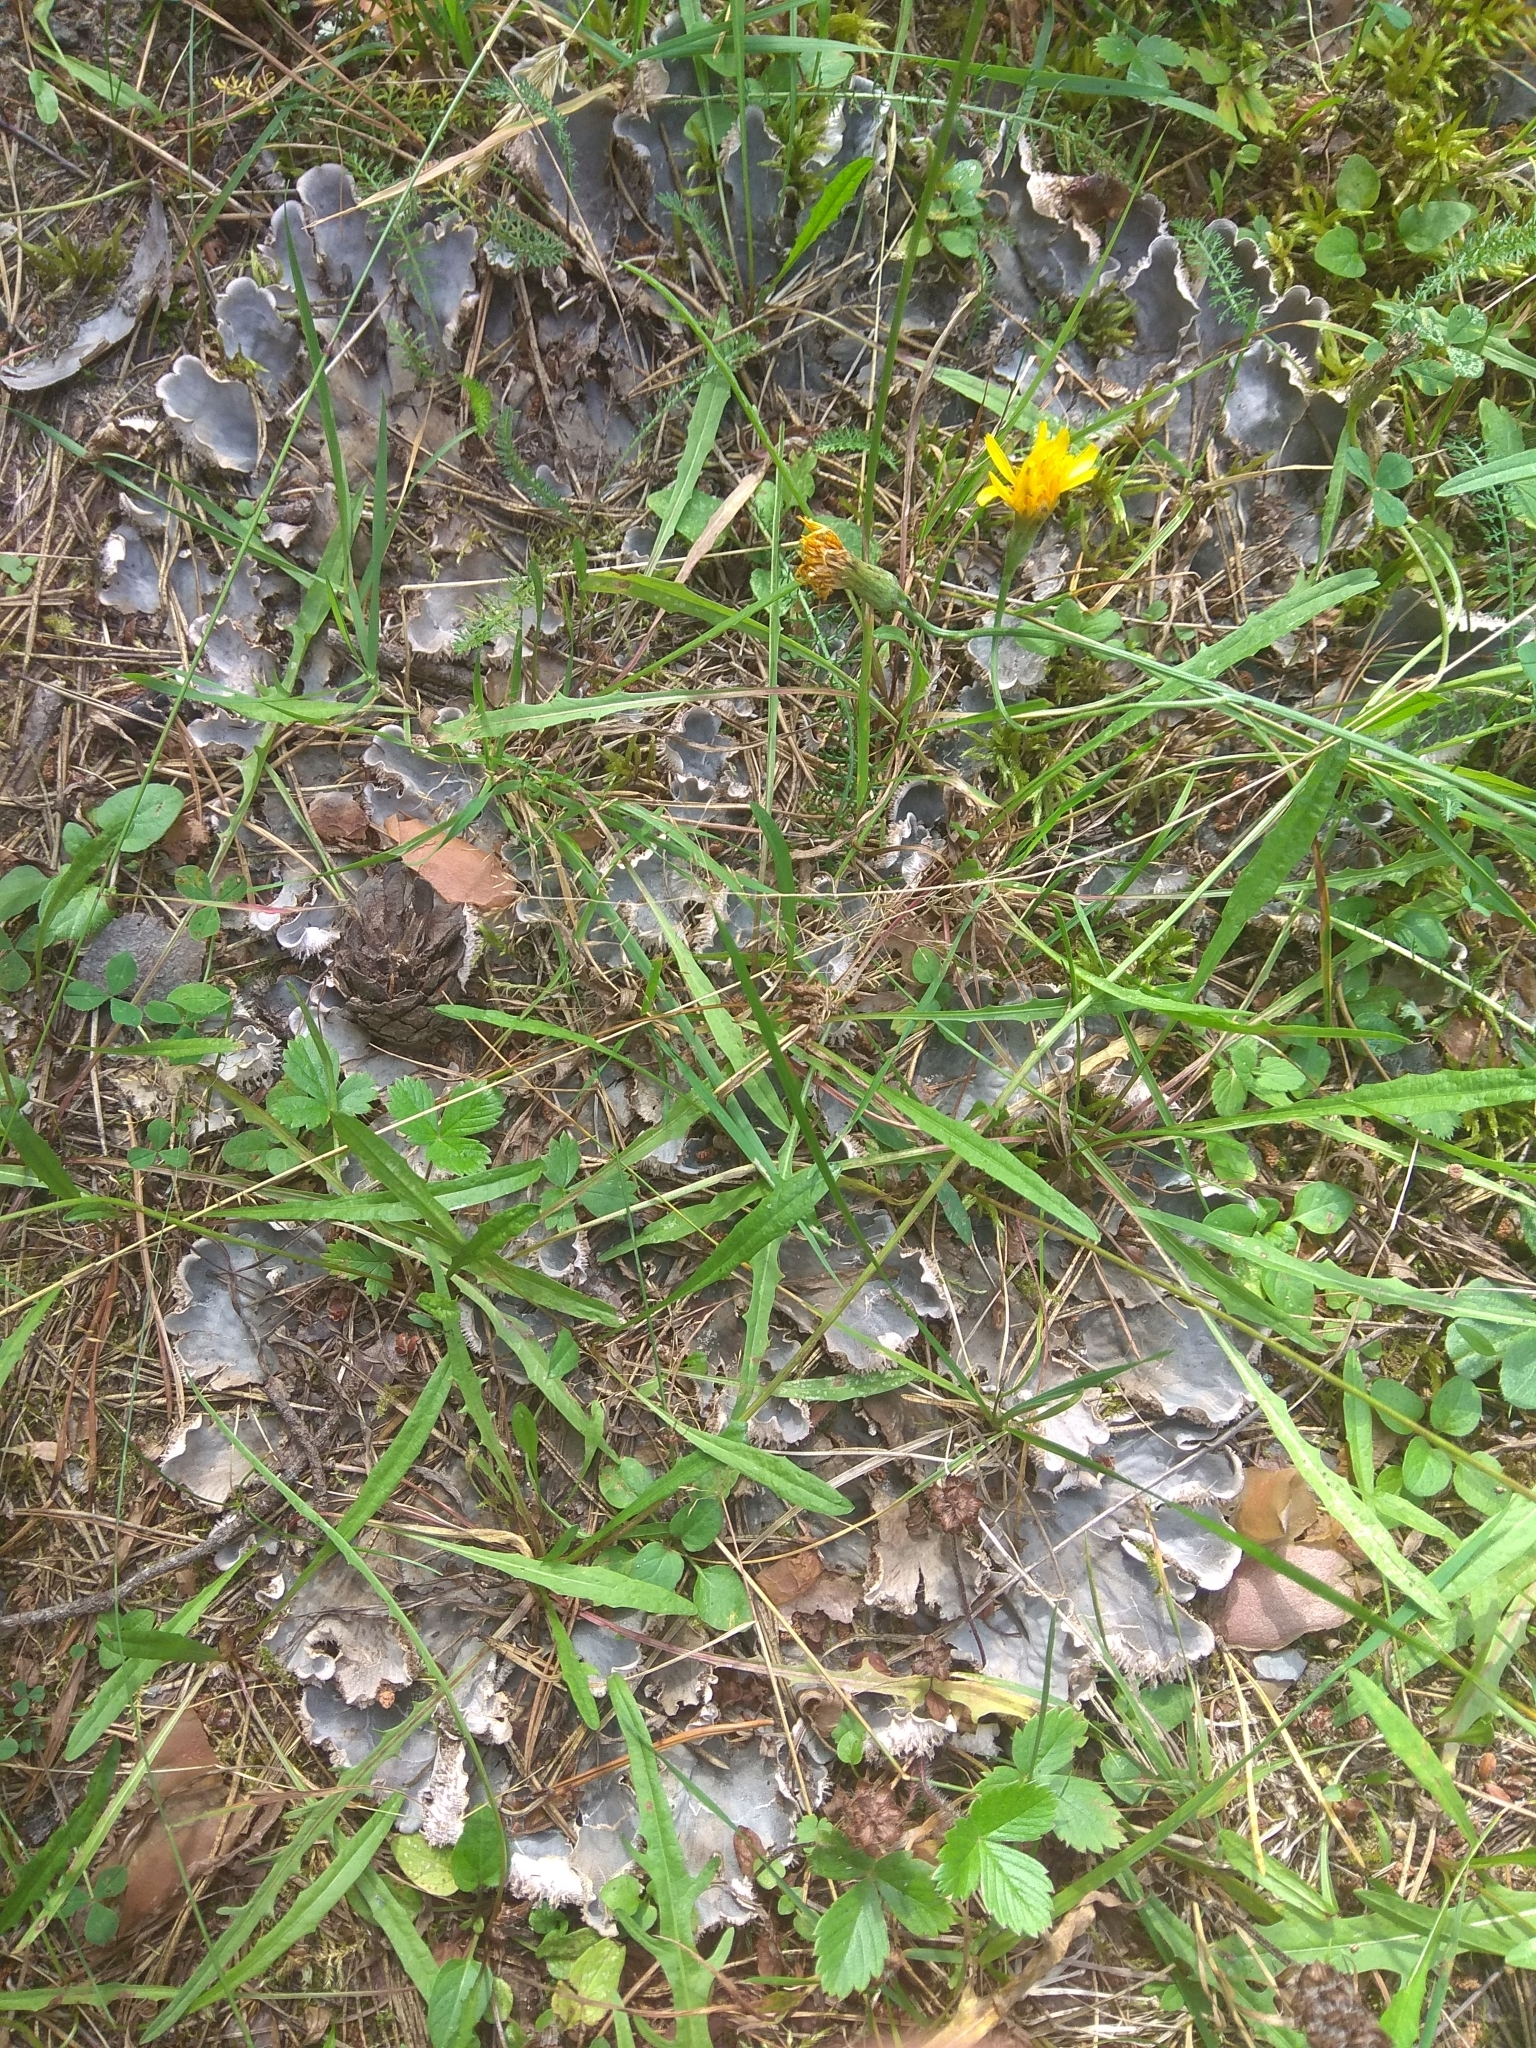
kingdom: Fungi
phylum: Ascomycota
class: Lecanoromycetes
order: Peltigerales
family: Peltigeraceae
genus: Peltigera
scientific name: Peltigera canina
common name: Dog pelt lichen
